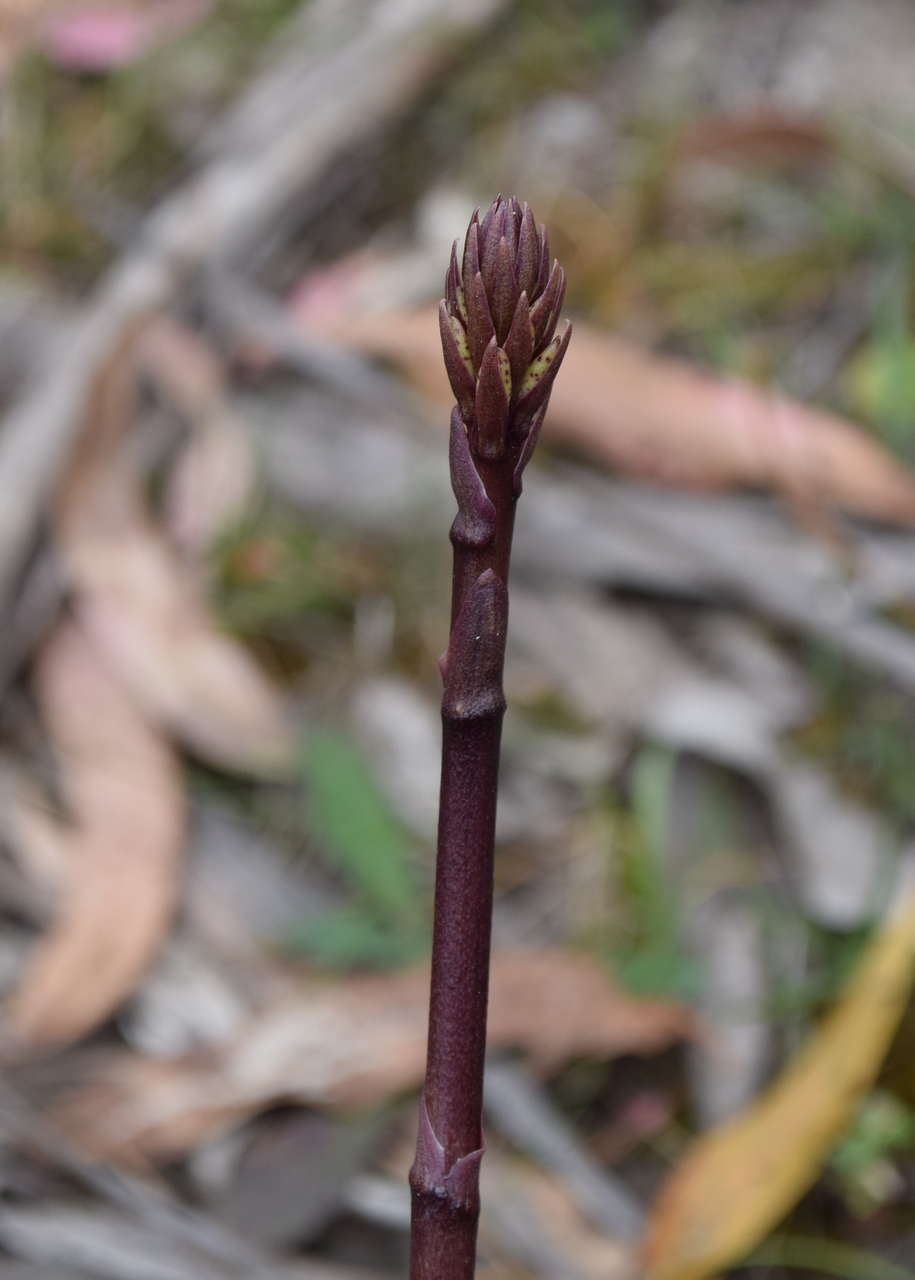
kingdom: Plantae
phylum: Tracheophyta
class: Liliopsida
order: Asparagales
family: Orchidaceae
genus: Dipodium
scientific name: Dipodium roseum
